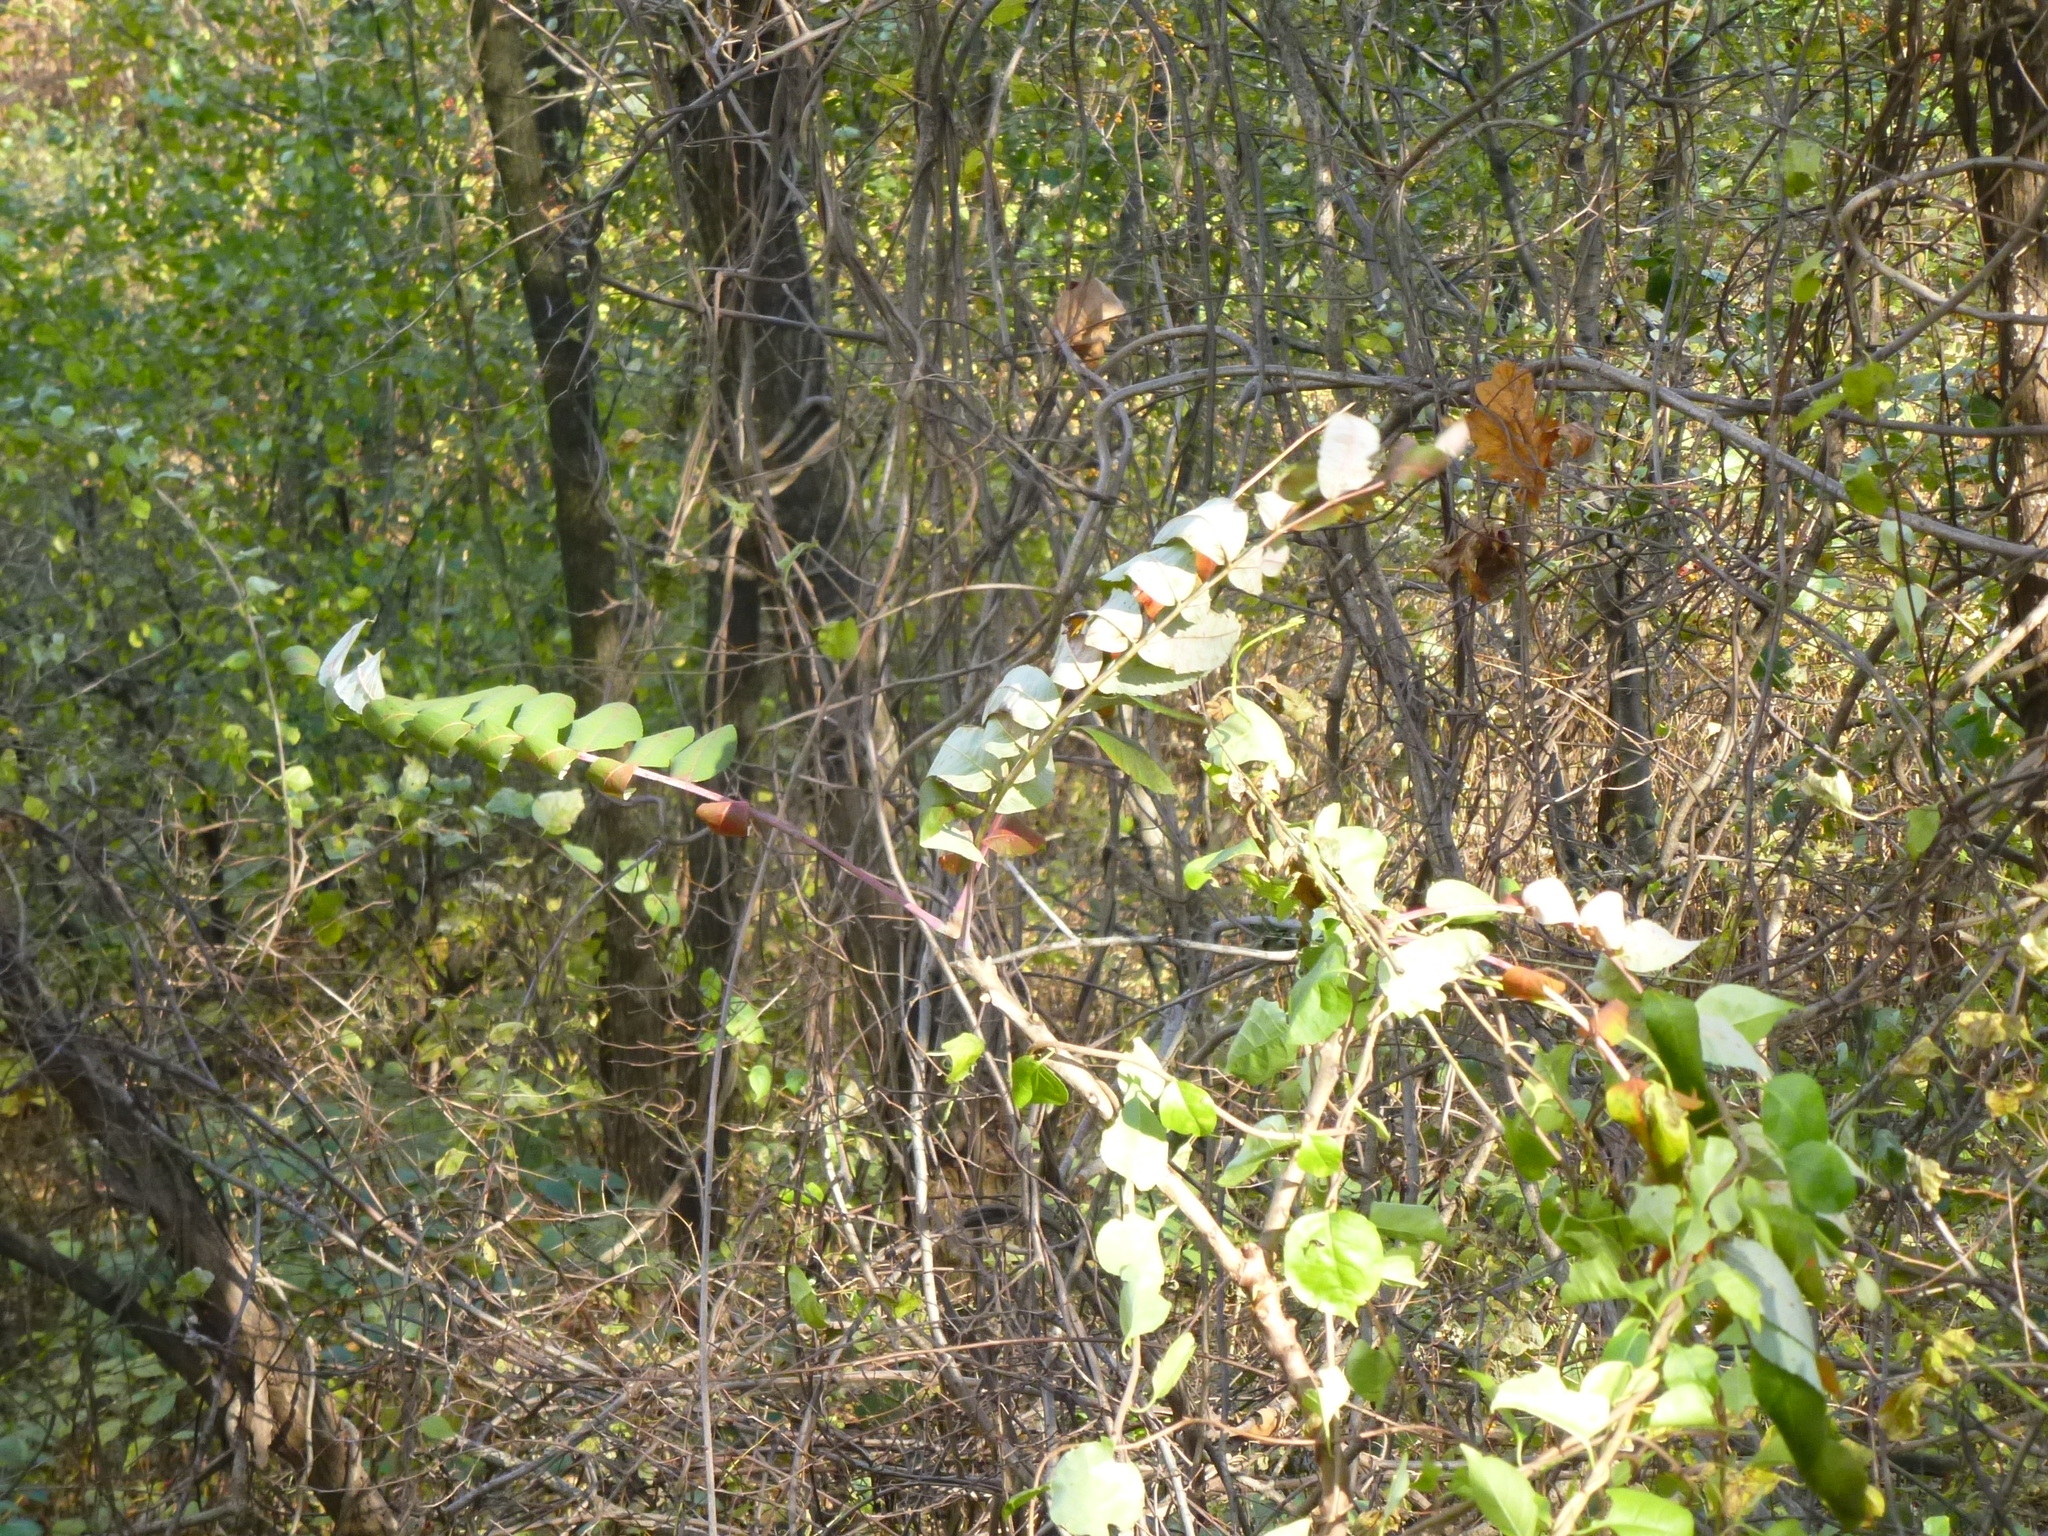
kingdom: Plantae
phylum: Tracheophyta
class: Magnoliopsida
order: Sapindales
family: Anacardiaceae
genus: Rhus
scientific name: Rhus glabra
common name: Scarlet sumac
